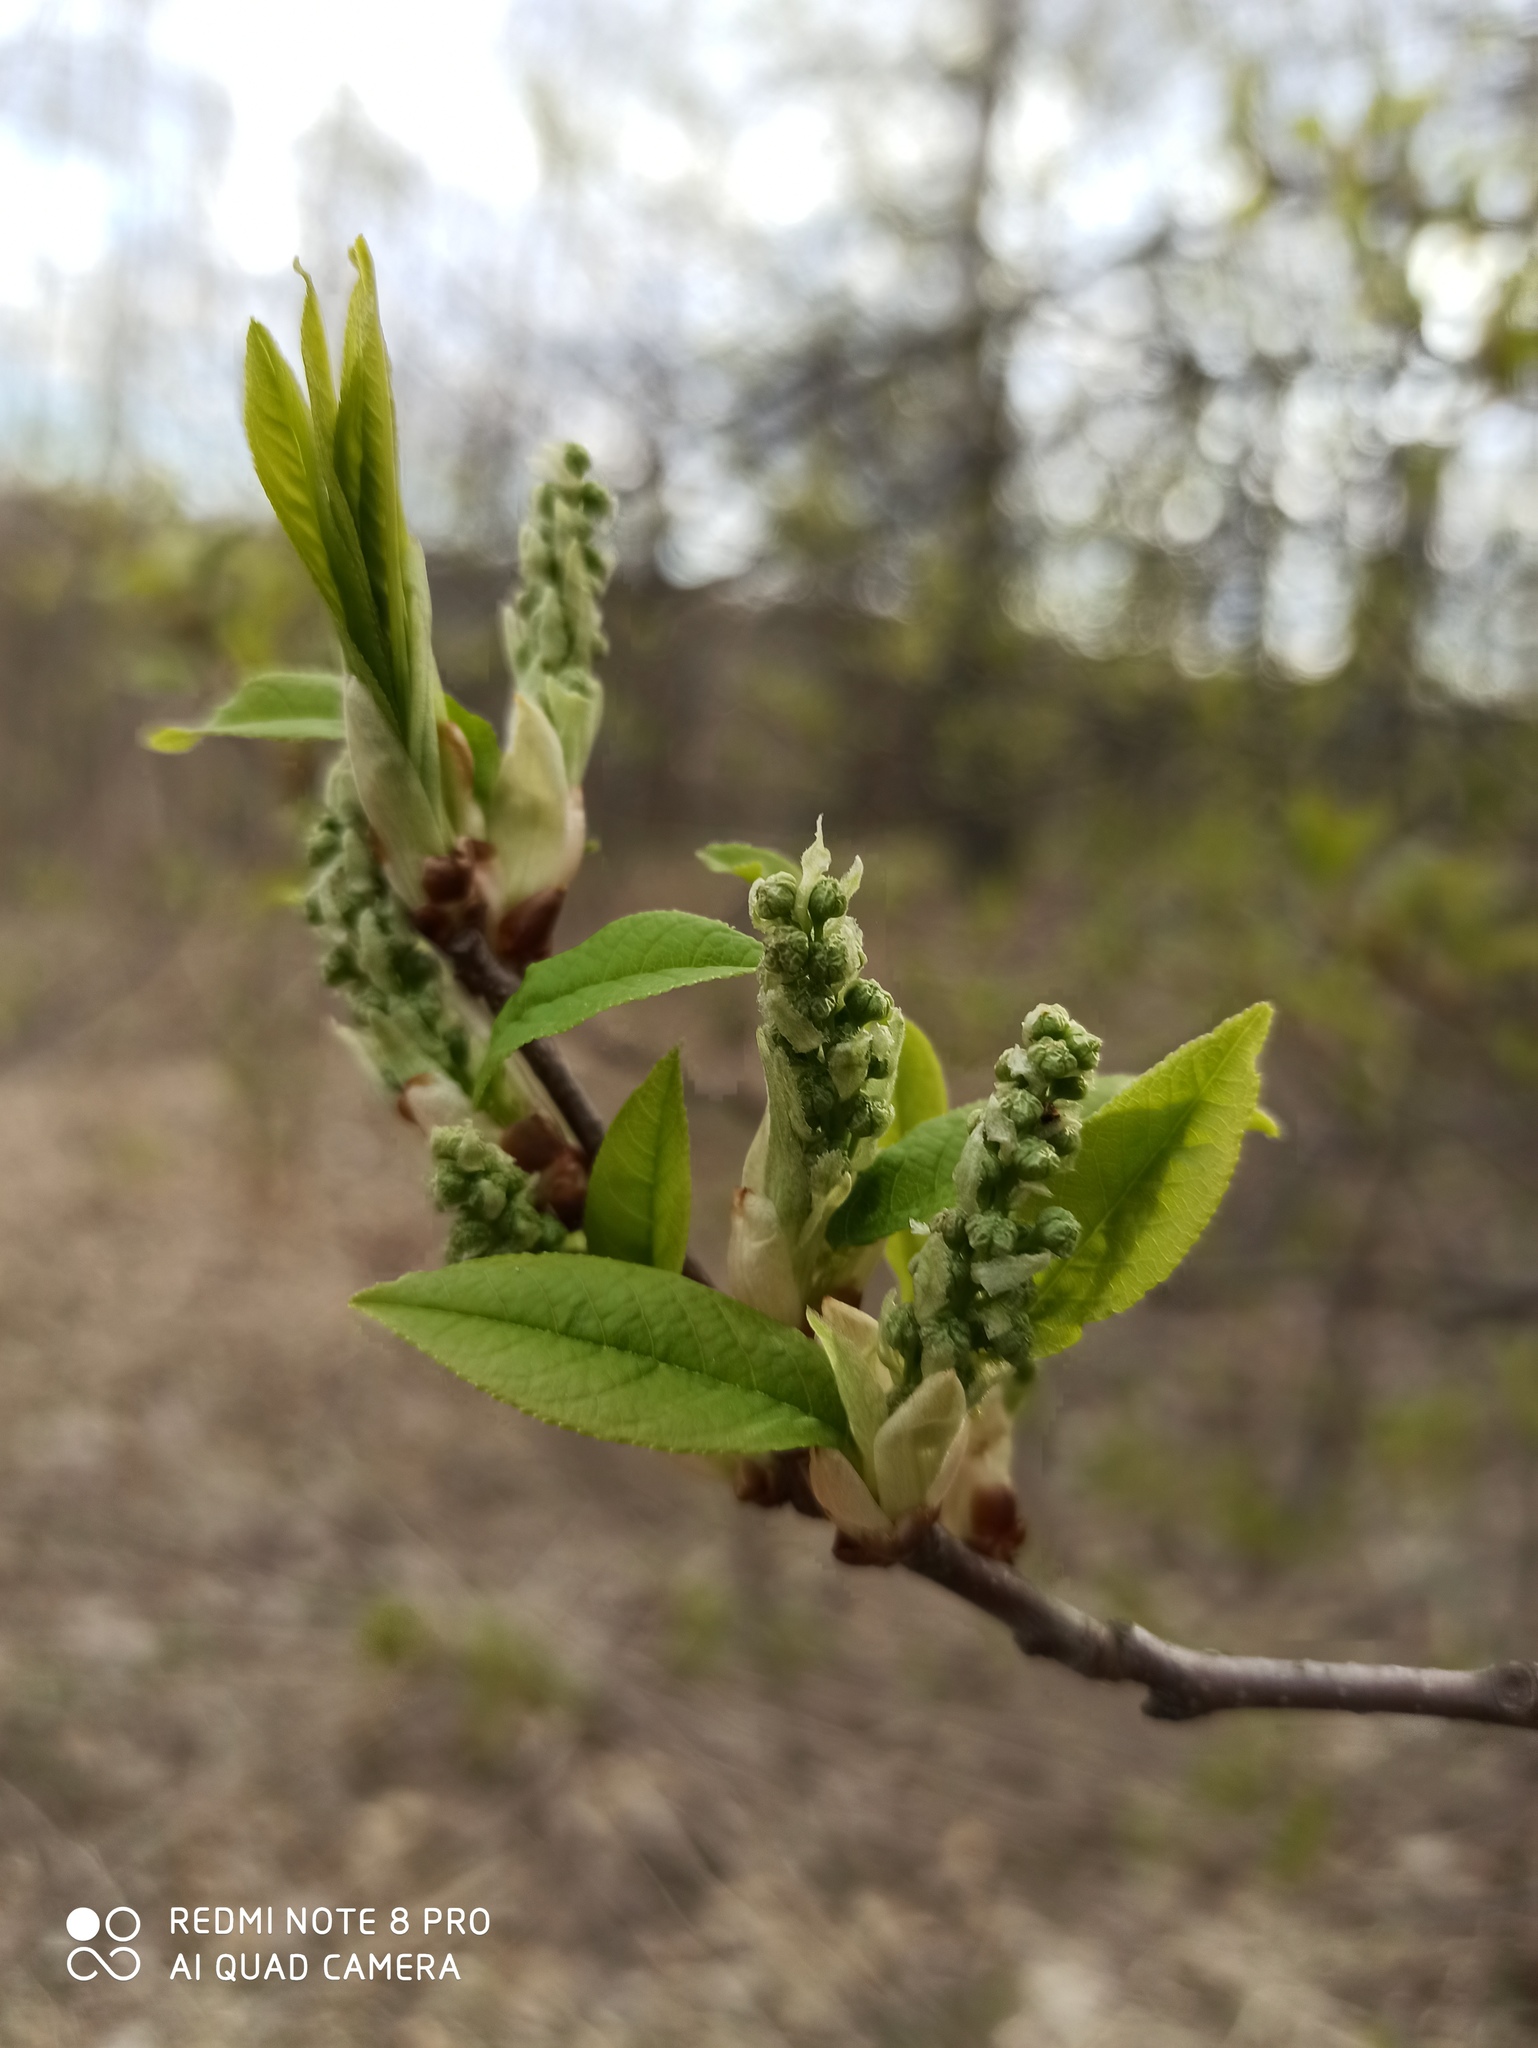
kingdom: Plantae
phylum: Tracheophyta
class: Magnoliopsida
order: Rosales
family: Rosaceae
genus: Prunus
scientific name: Prunus padus
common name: Bird cherry
